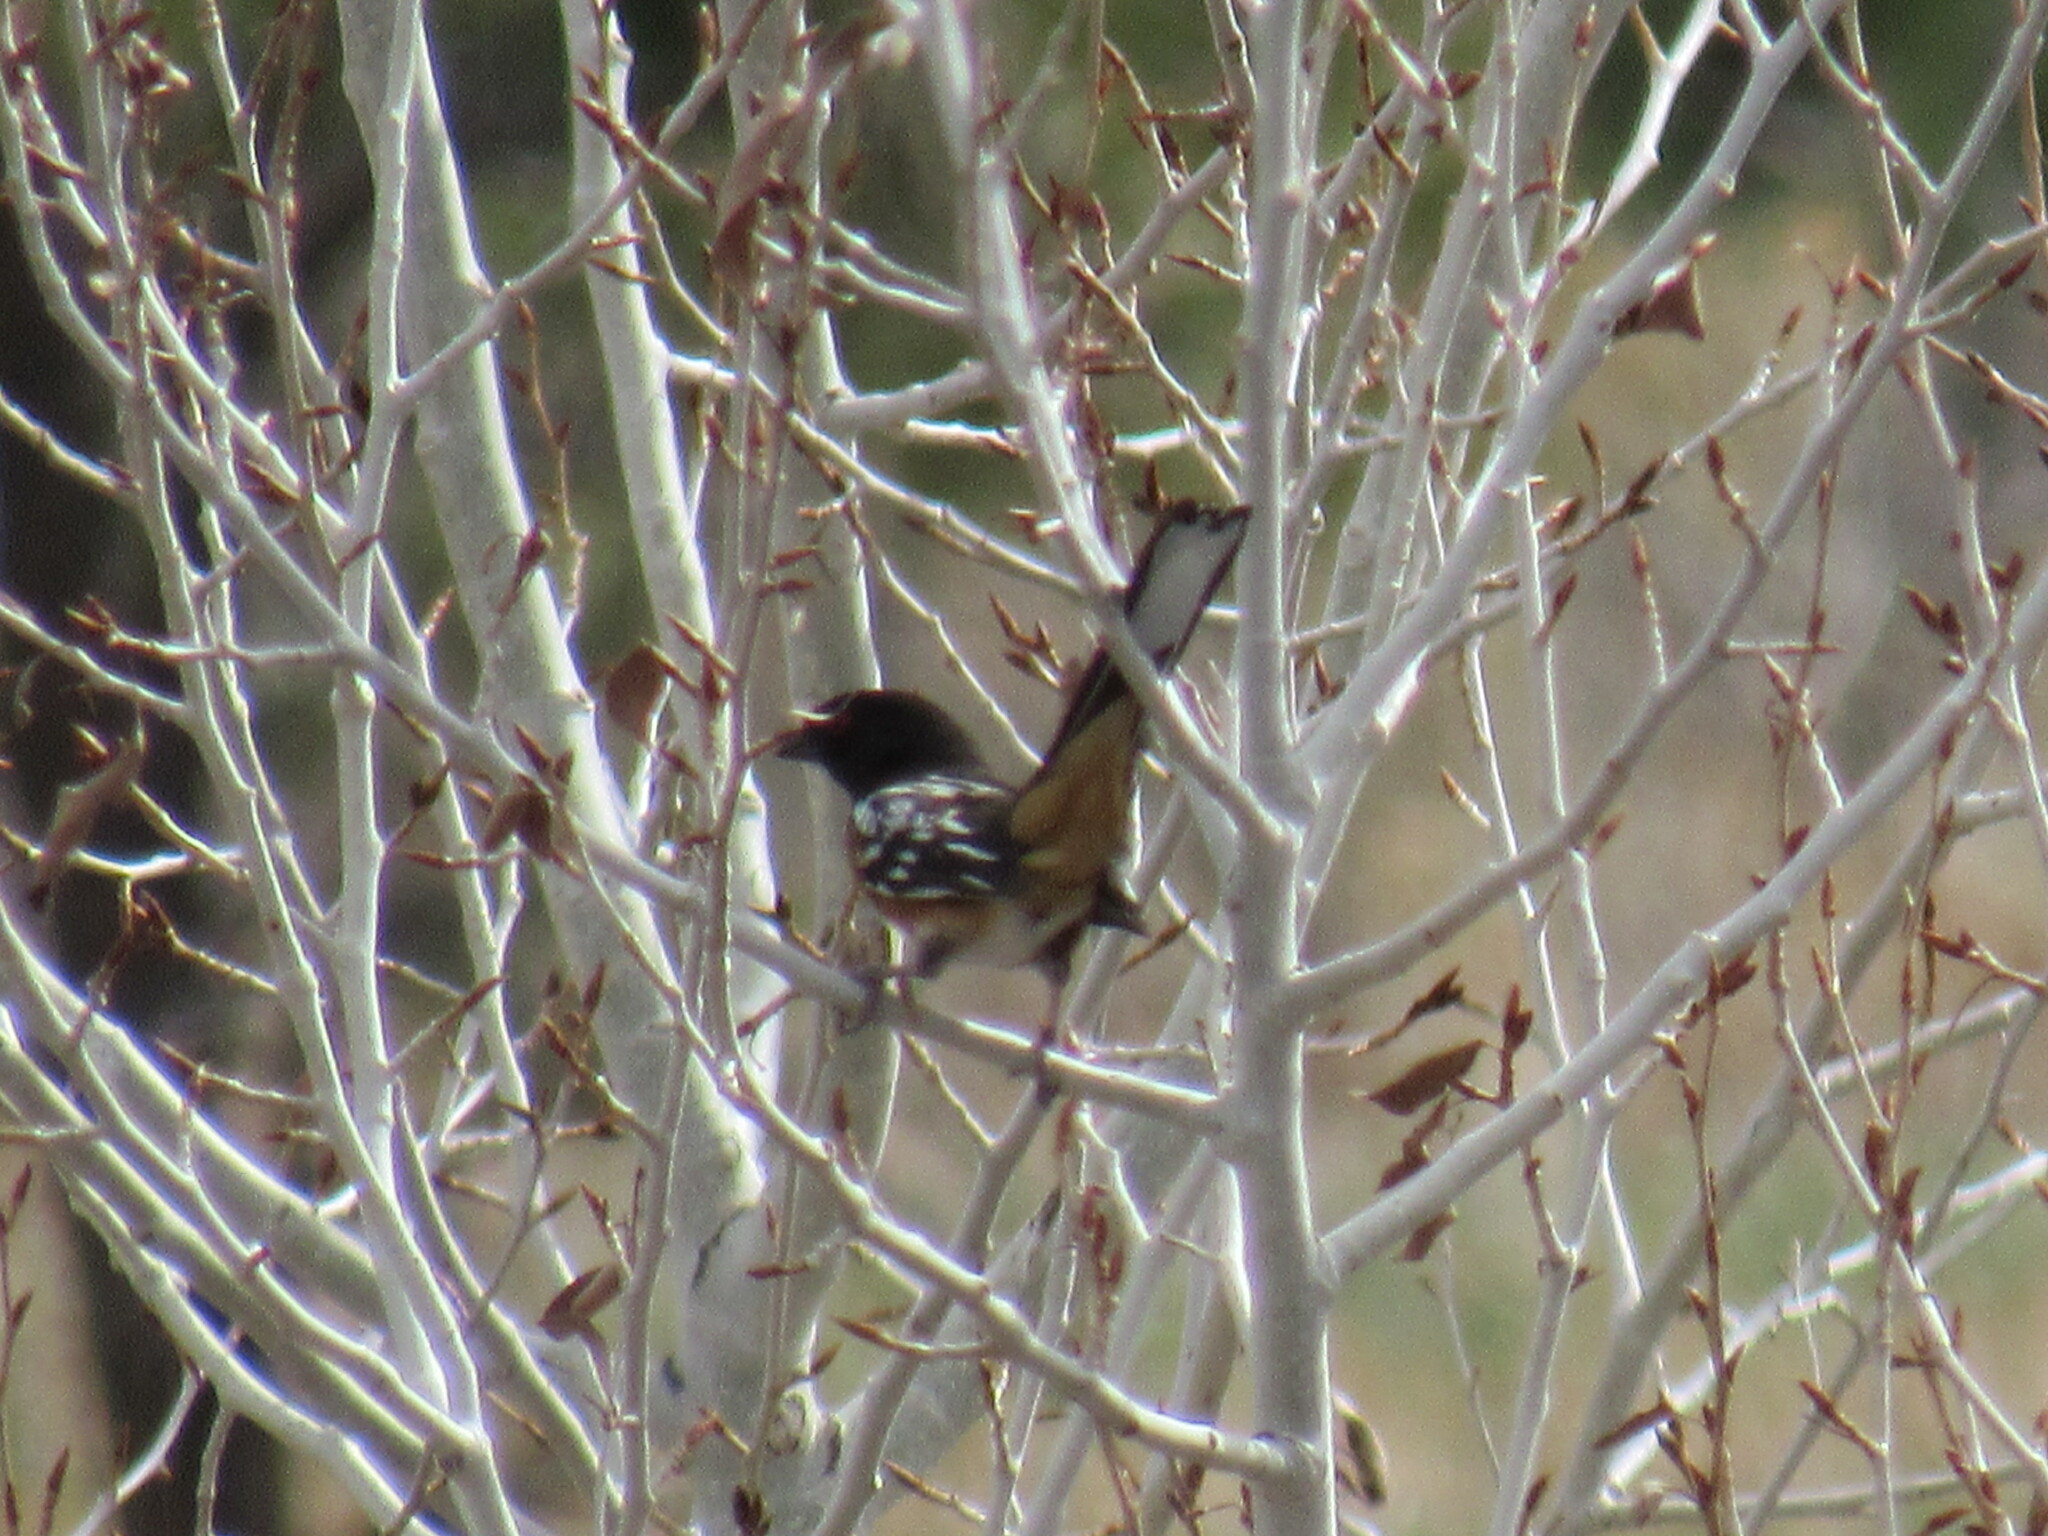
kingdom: Animalia
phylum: Chordata
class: Aves
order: Passeriformes
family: Passerellidae
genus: Pipilo
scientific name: Pipilo maculatus
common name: Spotted towhee
